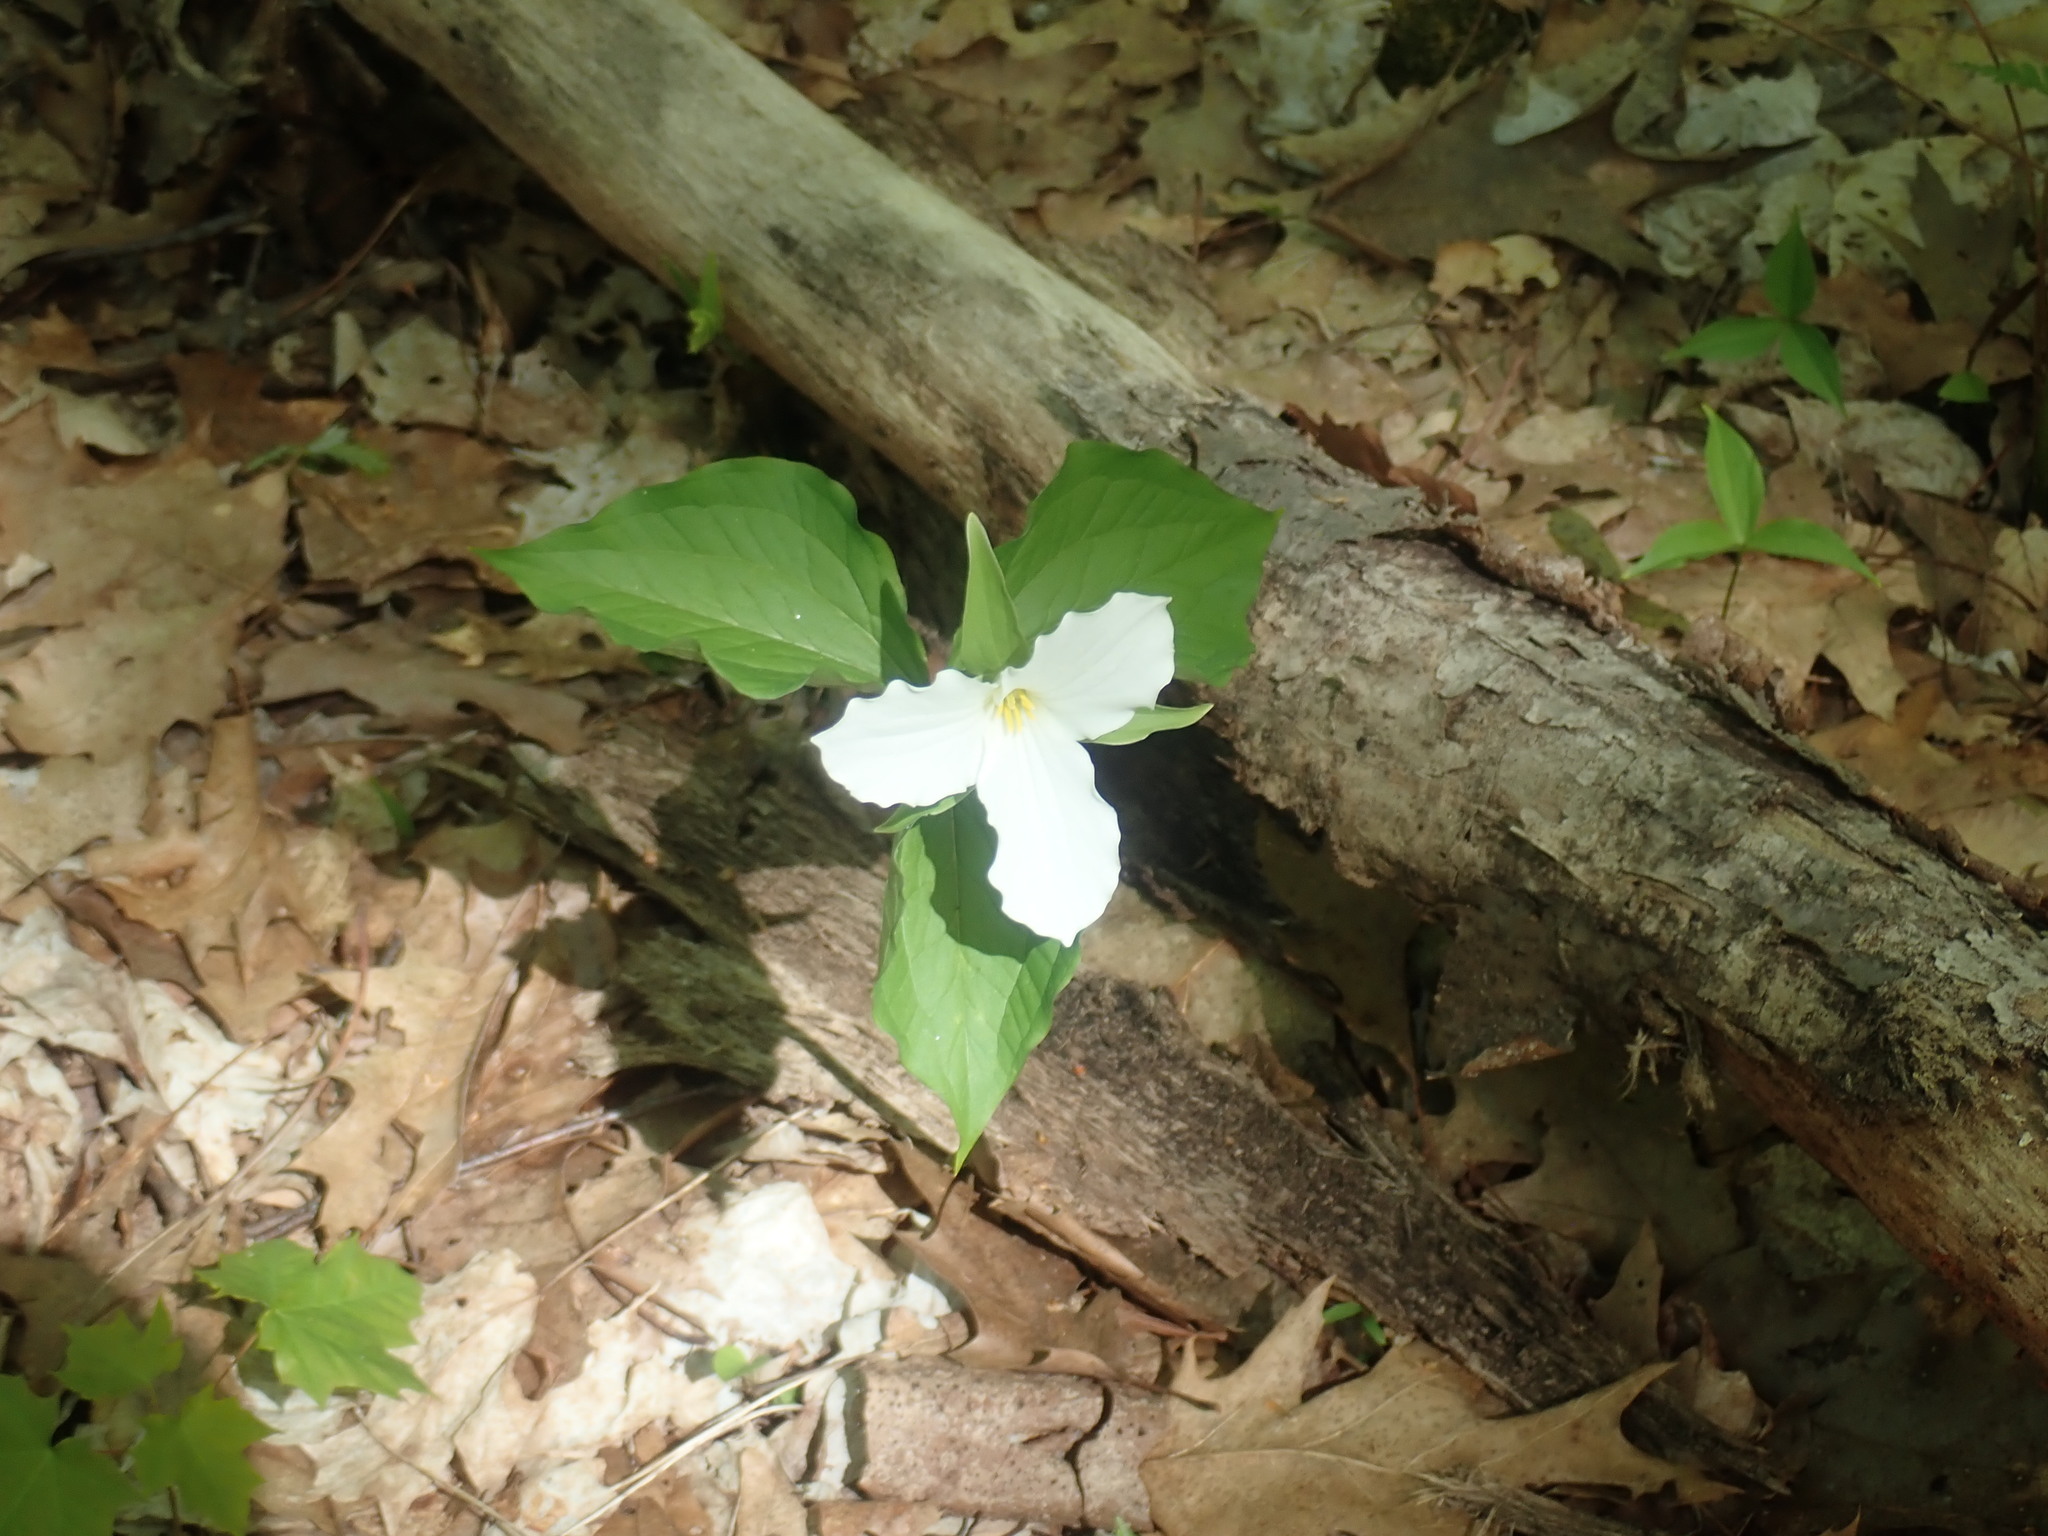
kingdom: Plantae
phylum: Tracheophyta
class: Liliopsida
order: Liliales
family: Melanthiaceae
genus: Trillium
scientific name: Trillium grandiflorum
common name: Great white trillium
